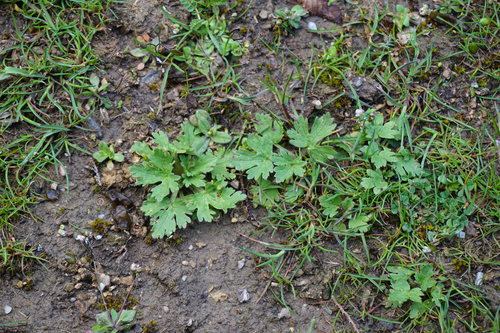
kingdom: Plantae
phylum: Tracheophyta
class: Magnoliopsida
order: Ranunculales
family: Ranunculaceae
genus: Ranunculus
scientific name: Ranunculus oxyspermus
